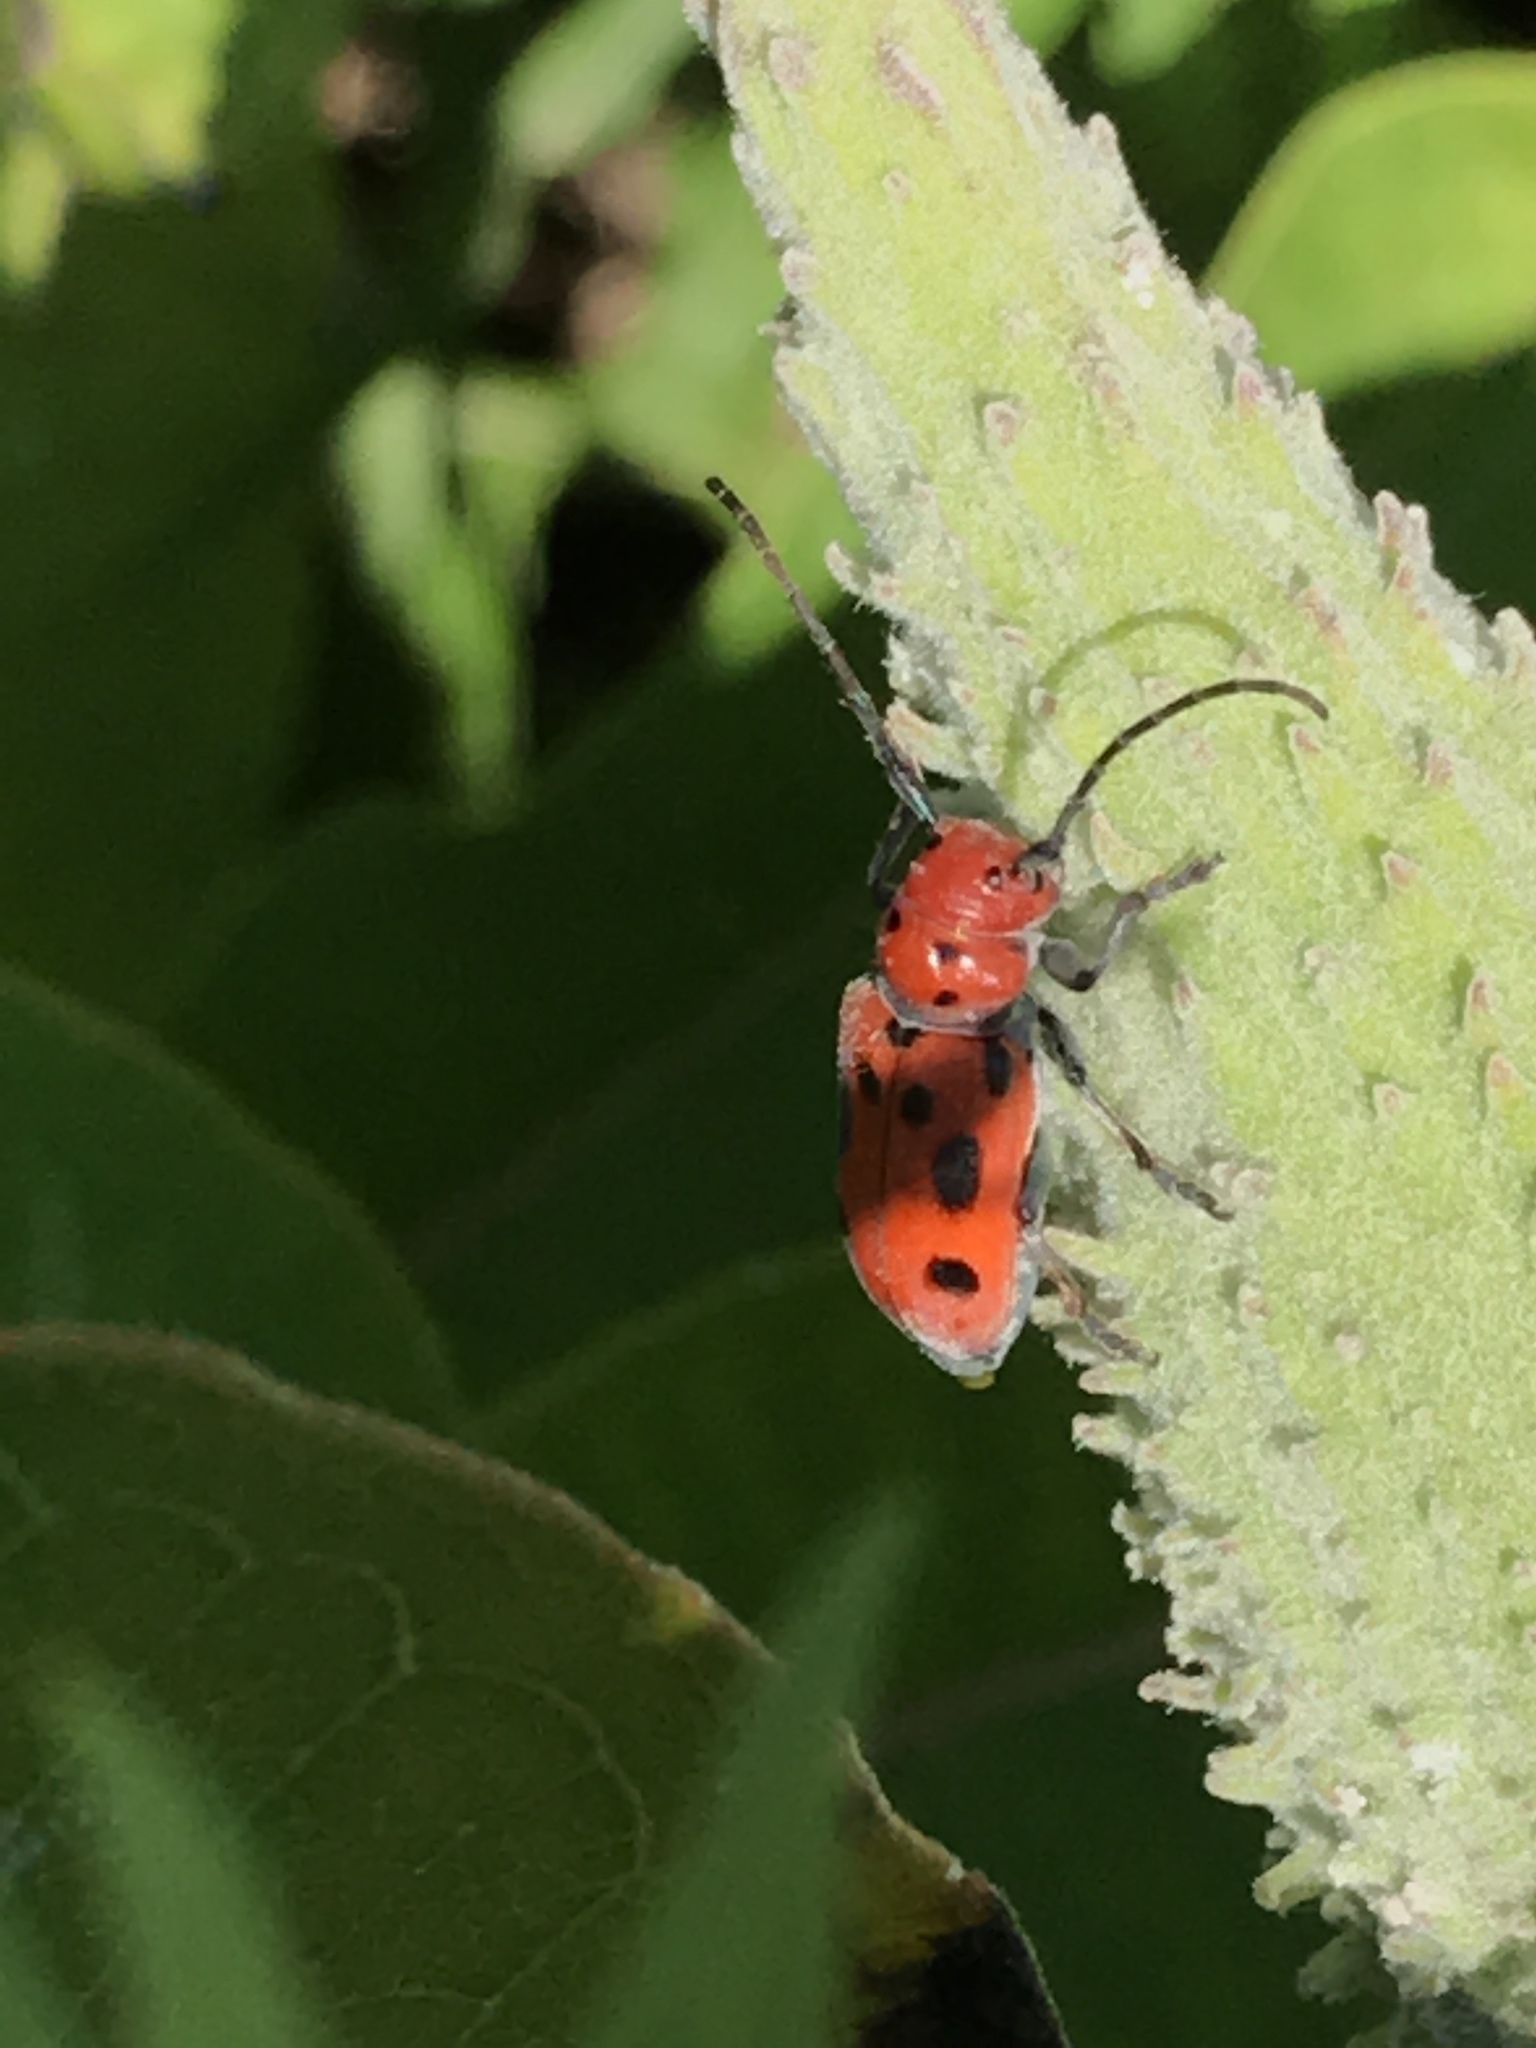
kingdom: Animalia
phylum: Arthropoda
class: Insecta
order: Coleoptera
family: Cerambycidae
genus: Tetraopes
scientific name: Tetraopes tetrophthalmus
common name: Red milkweed beetle
